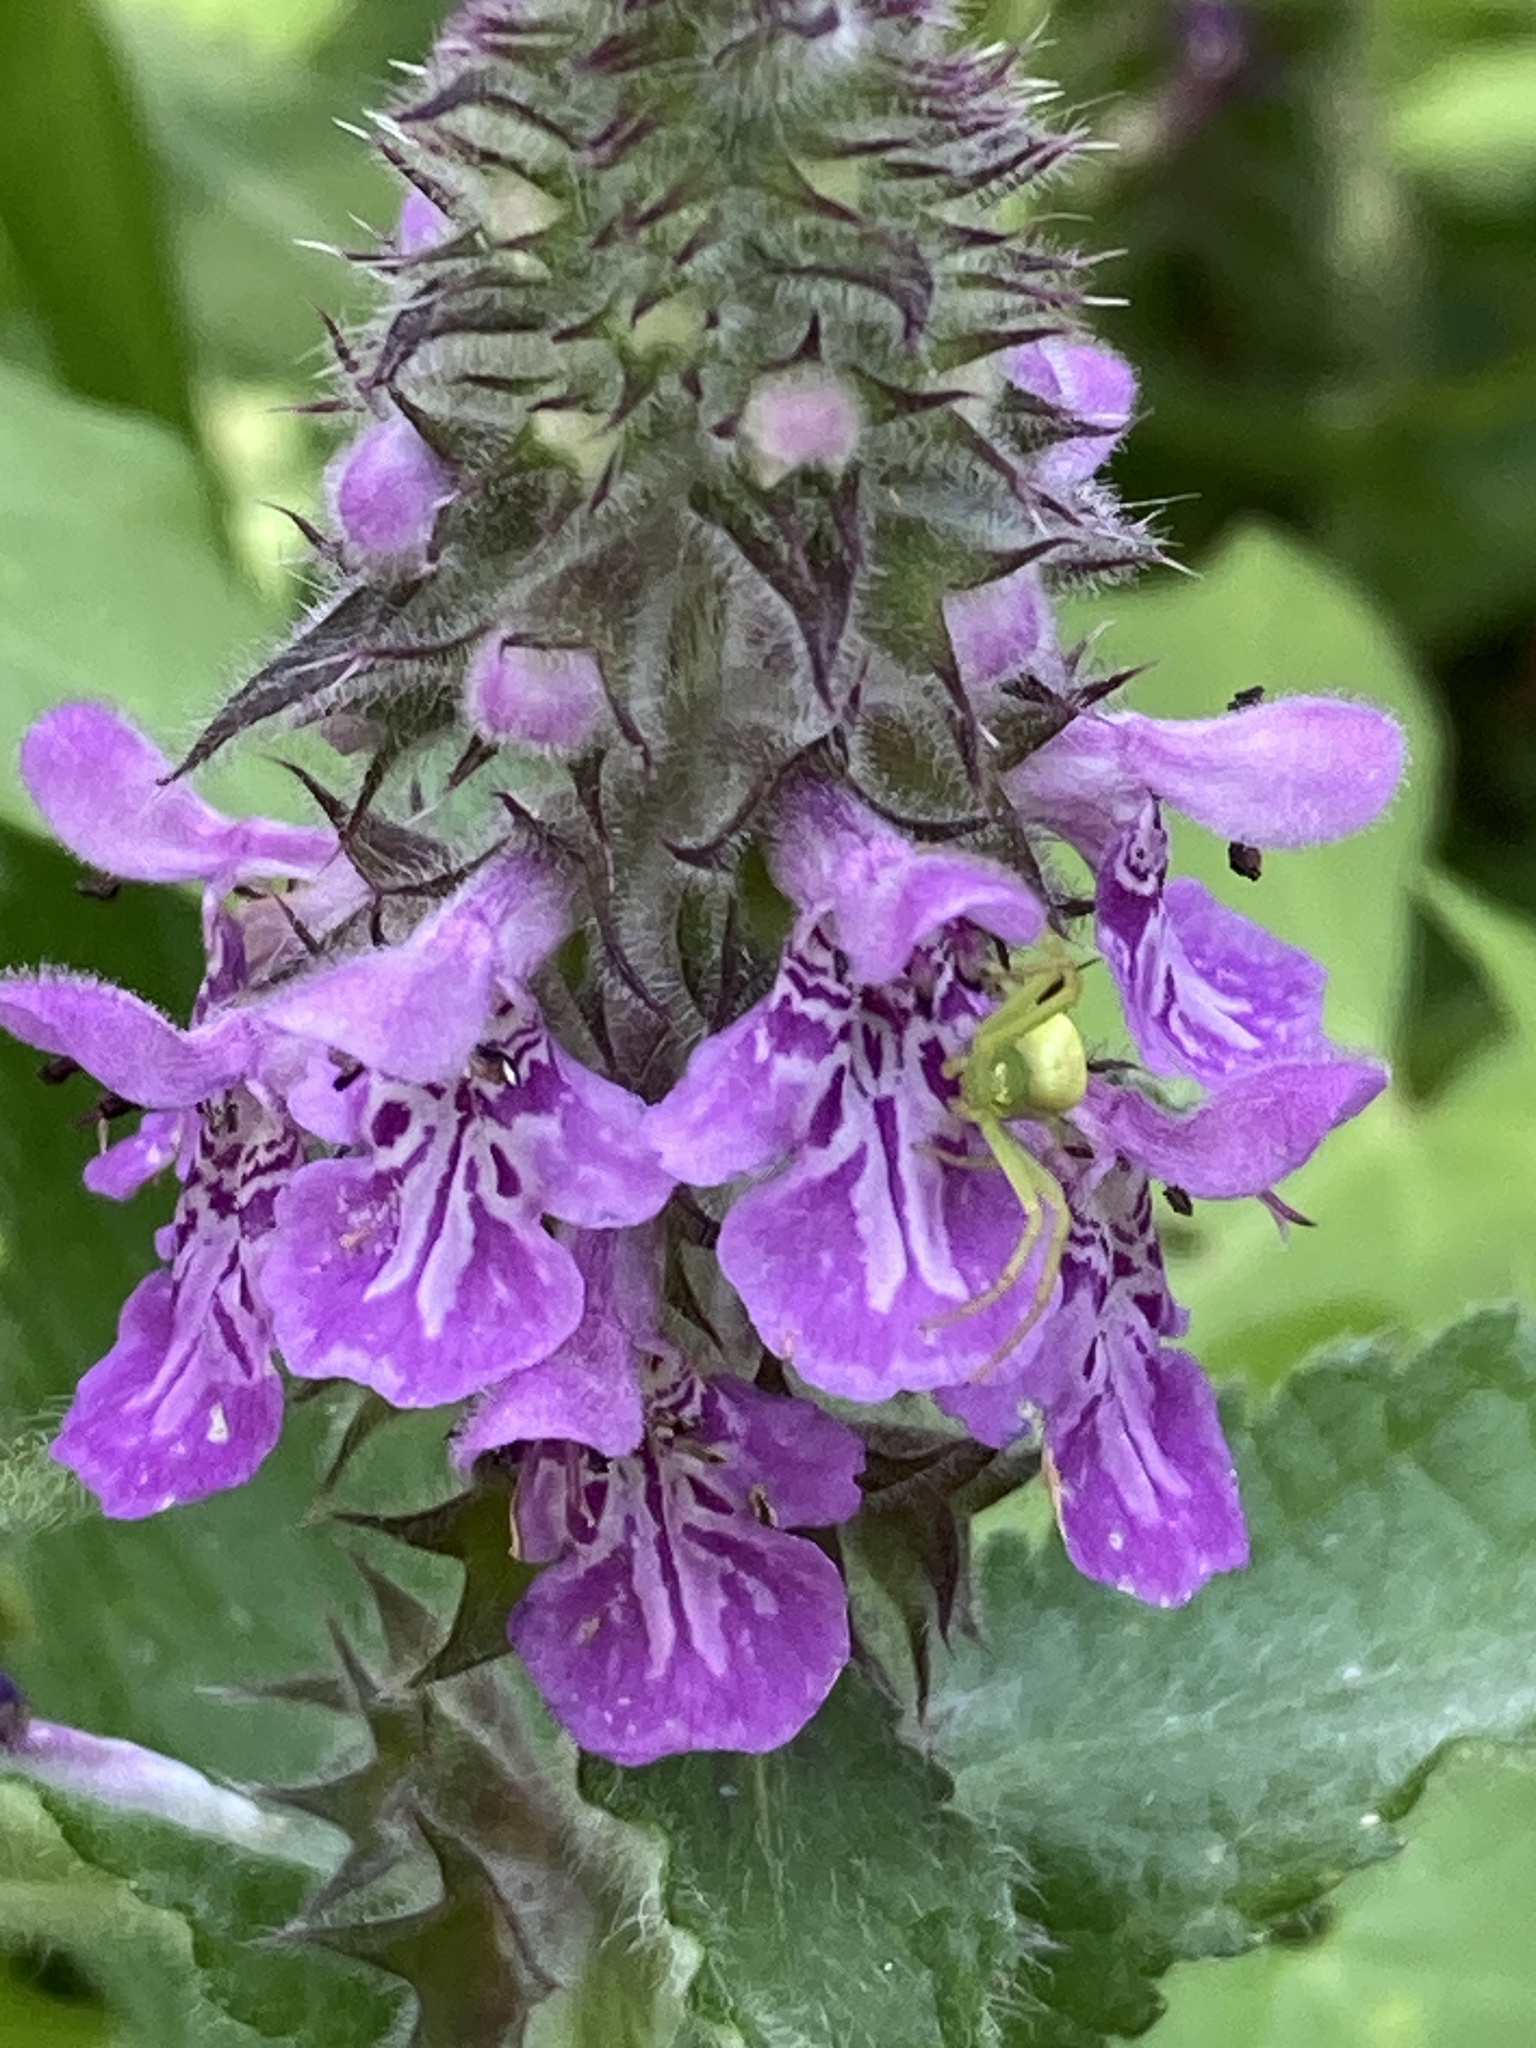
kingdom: Plantae
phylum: Tracheophyta
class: Magnoliopsida
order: Lamiales
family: Lamiaceae
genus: Stachys
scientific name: Stachys palustris
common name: Marsh woundwort
